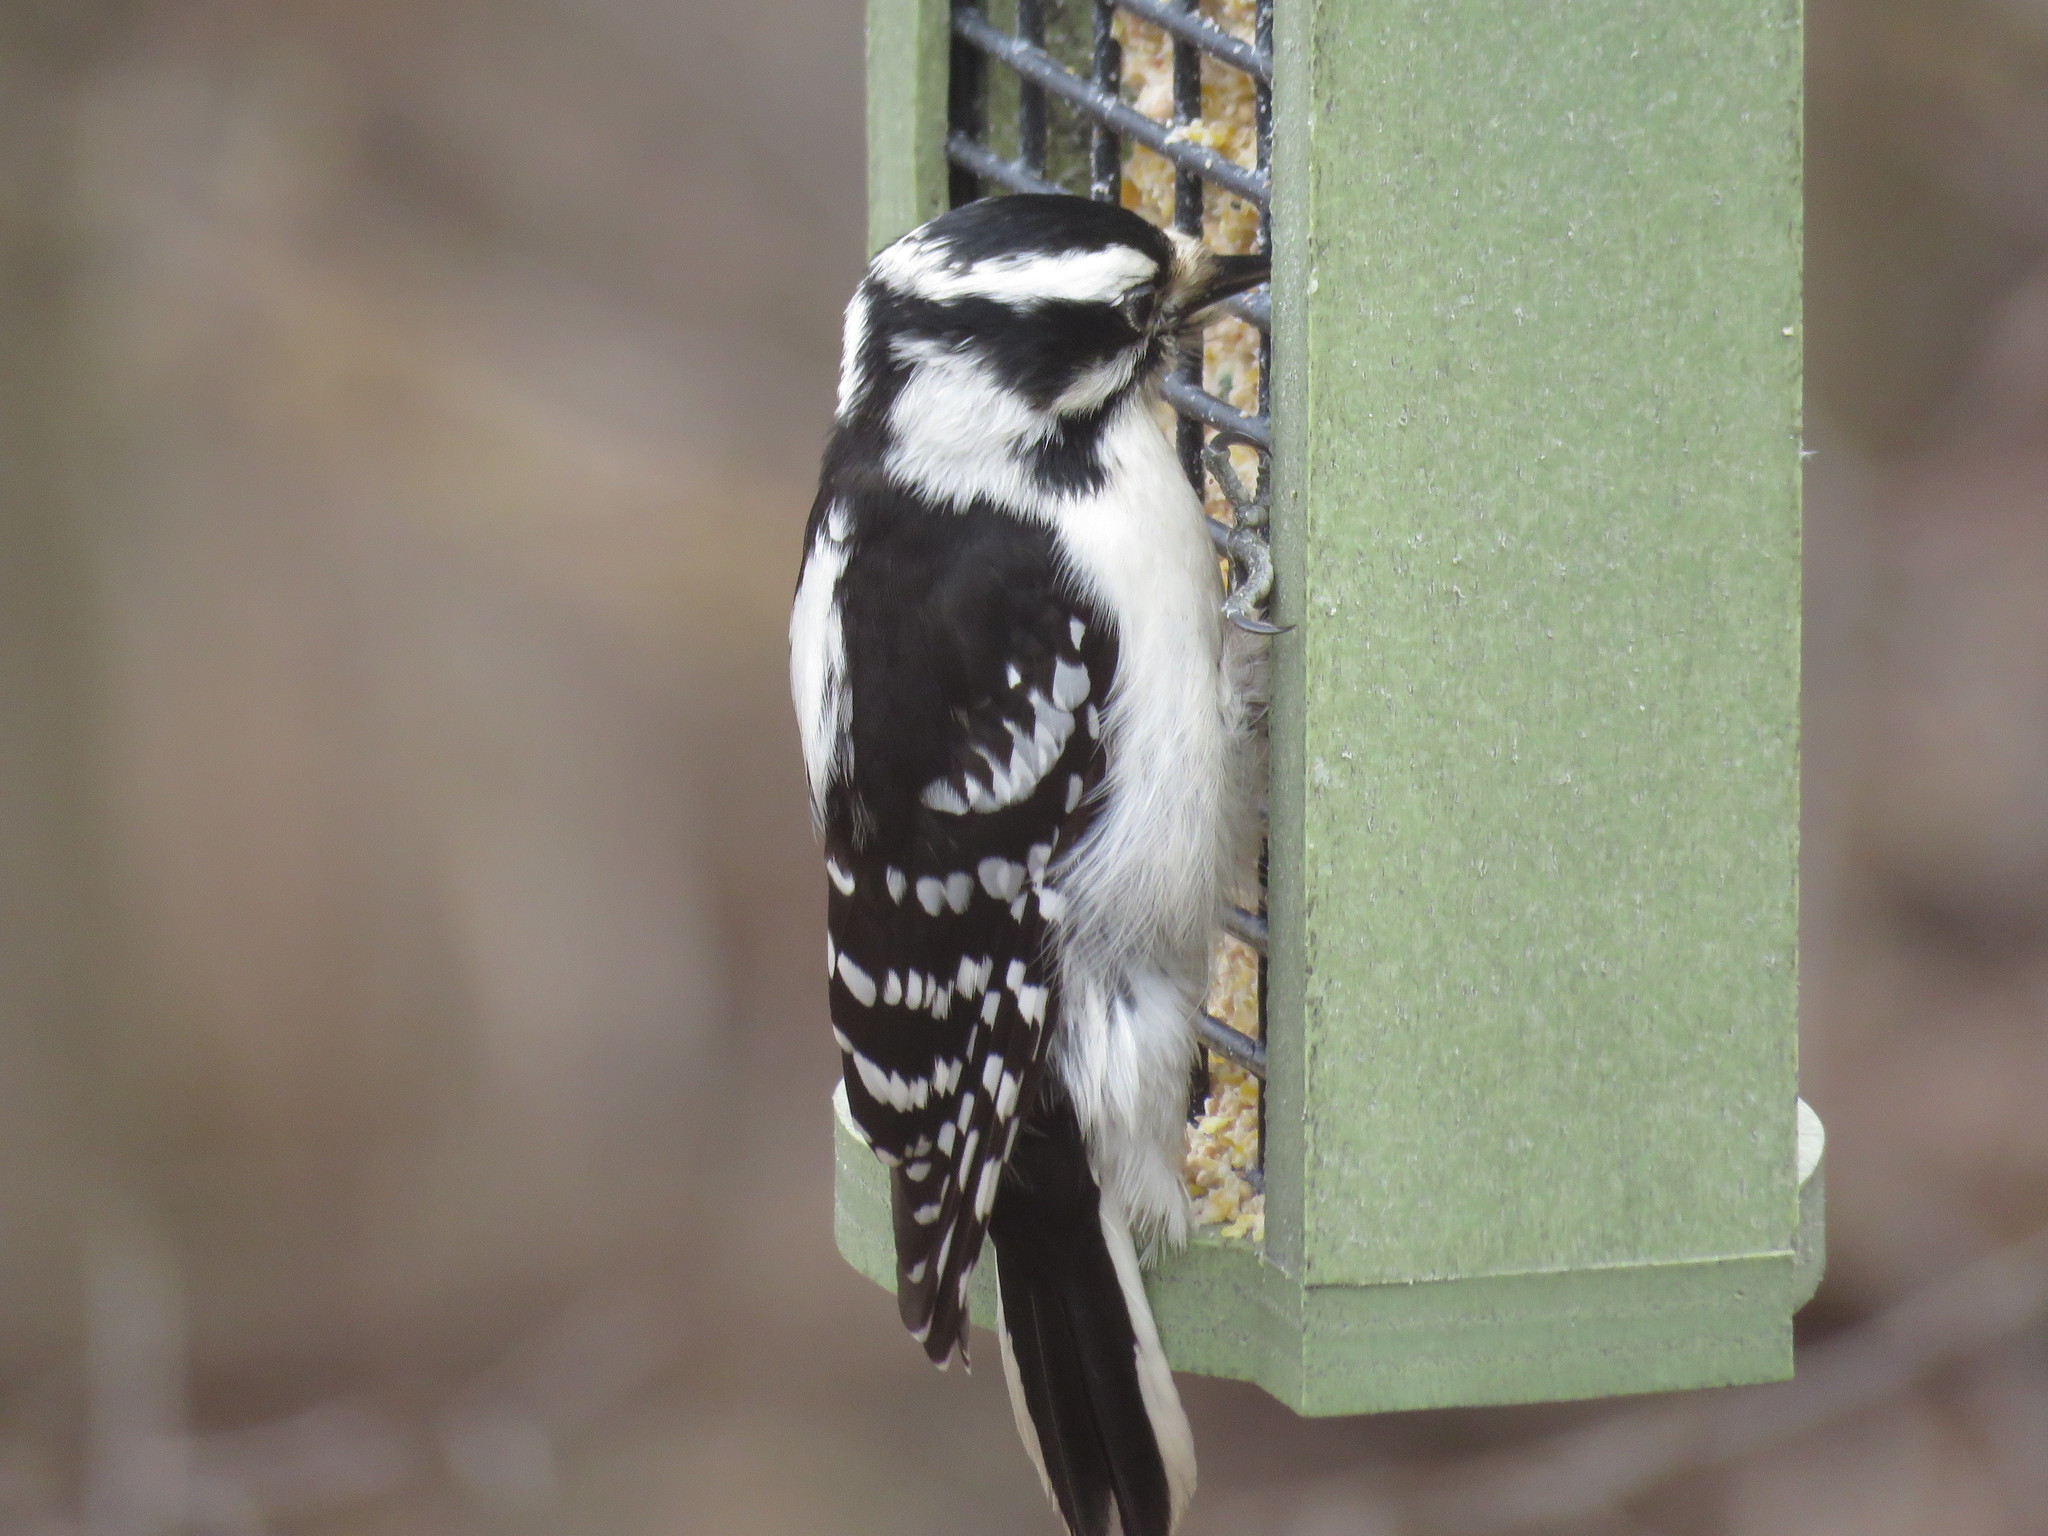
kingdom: Animalia
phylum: Chordata
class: Aves
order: Piciformes
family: Picidae
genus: Dryobates
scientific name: Dryobates pubescens
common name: Downy woodpecker
